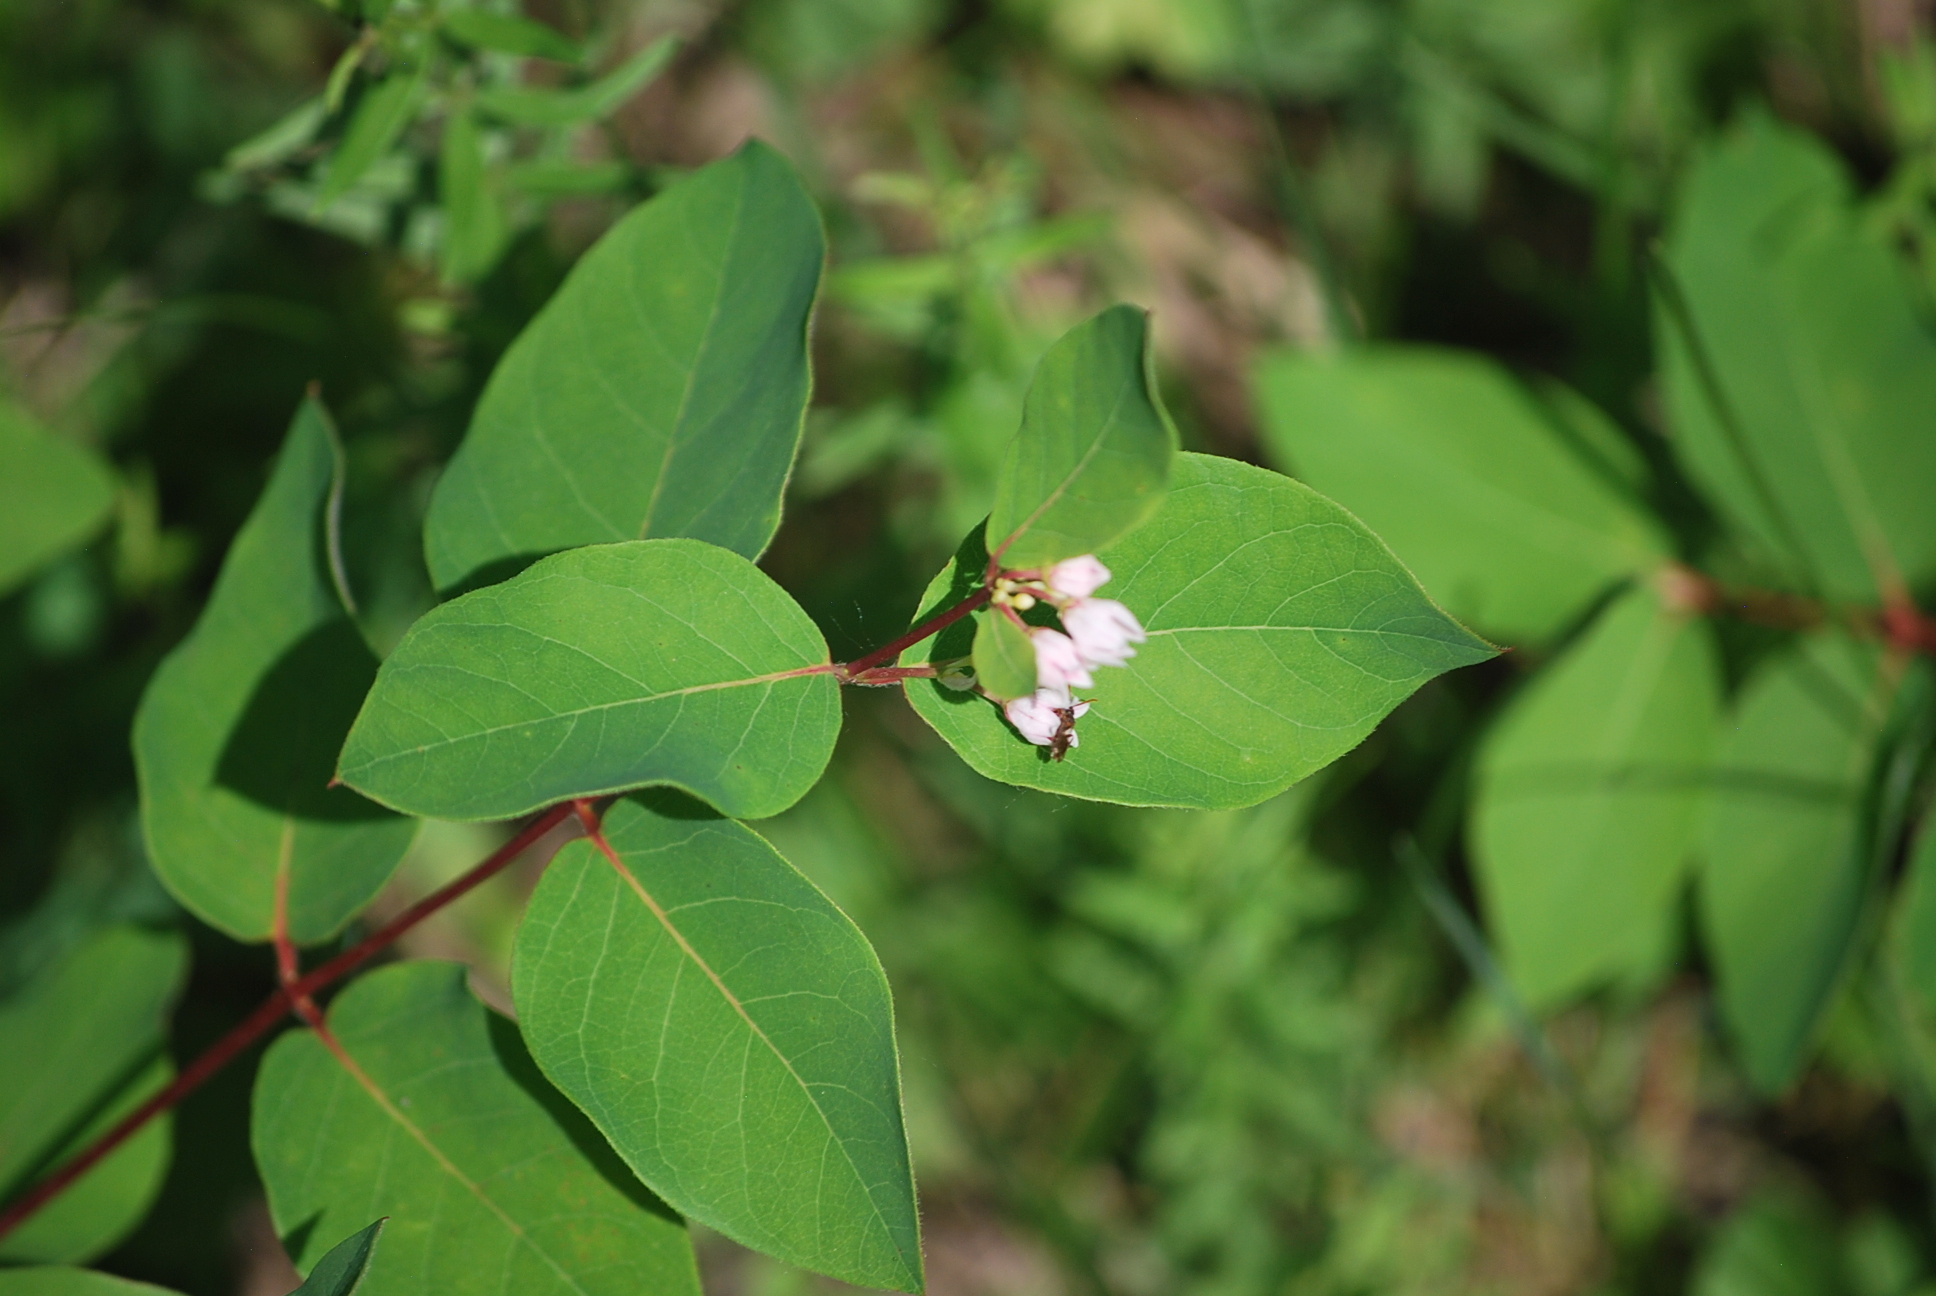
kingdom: Plantae
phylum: Tracheophyta
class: Magnoliopsida
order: Gentianales
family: Apocynaceae
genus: Apocynum
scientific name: Apocynum androsaemifolium
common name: Spreading dogbane
